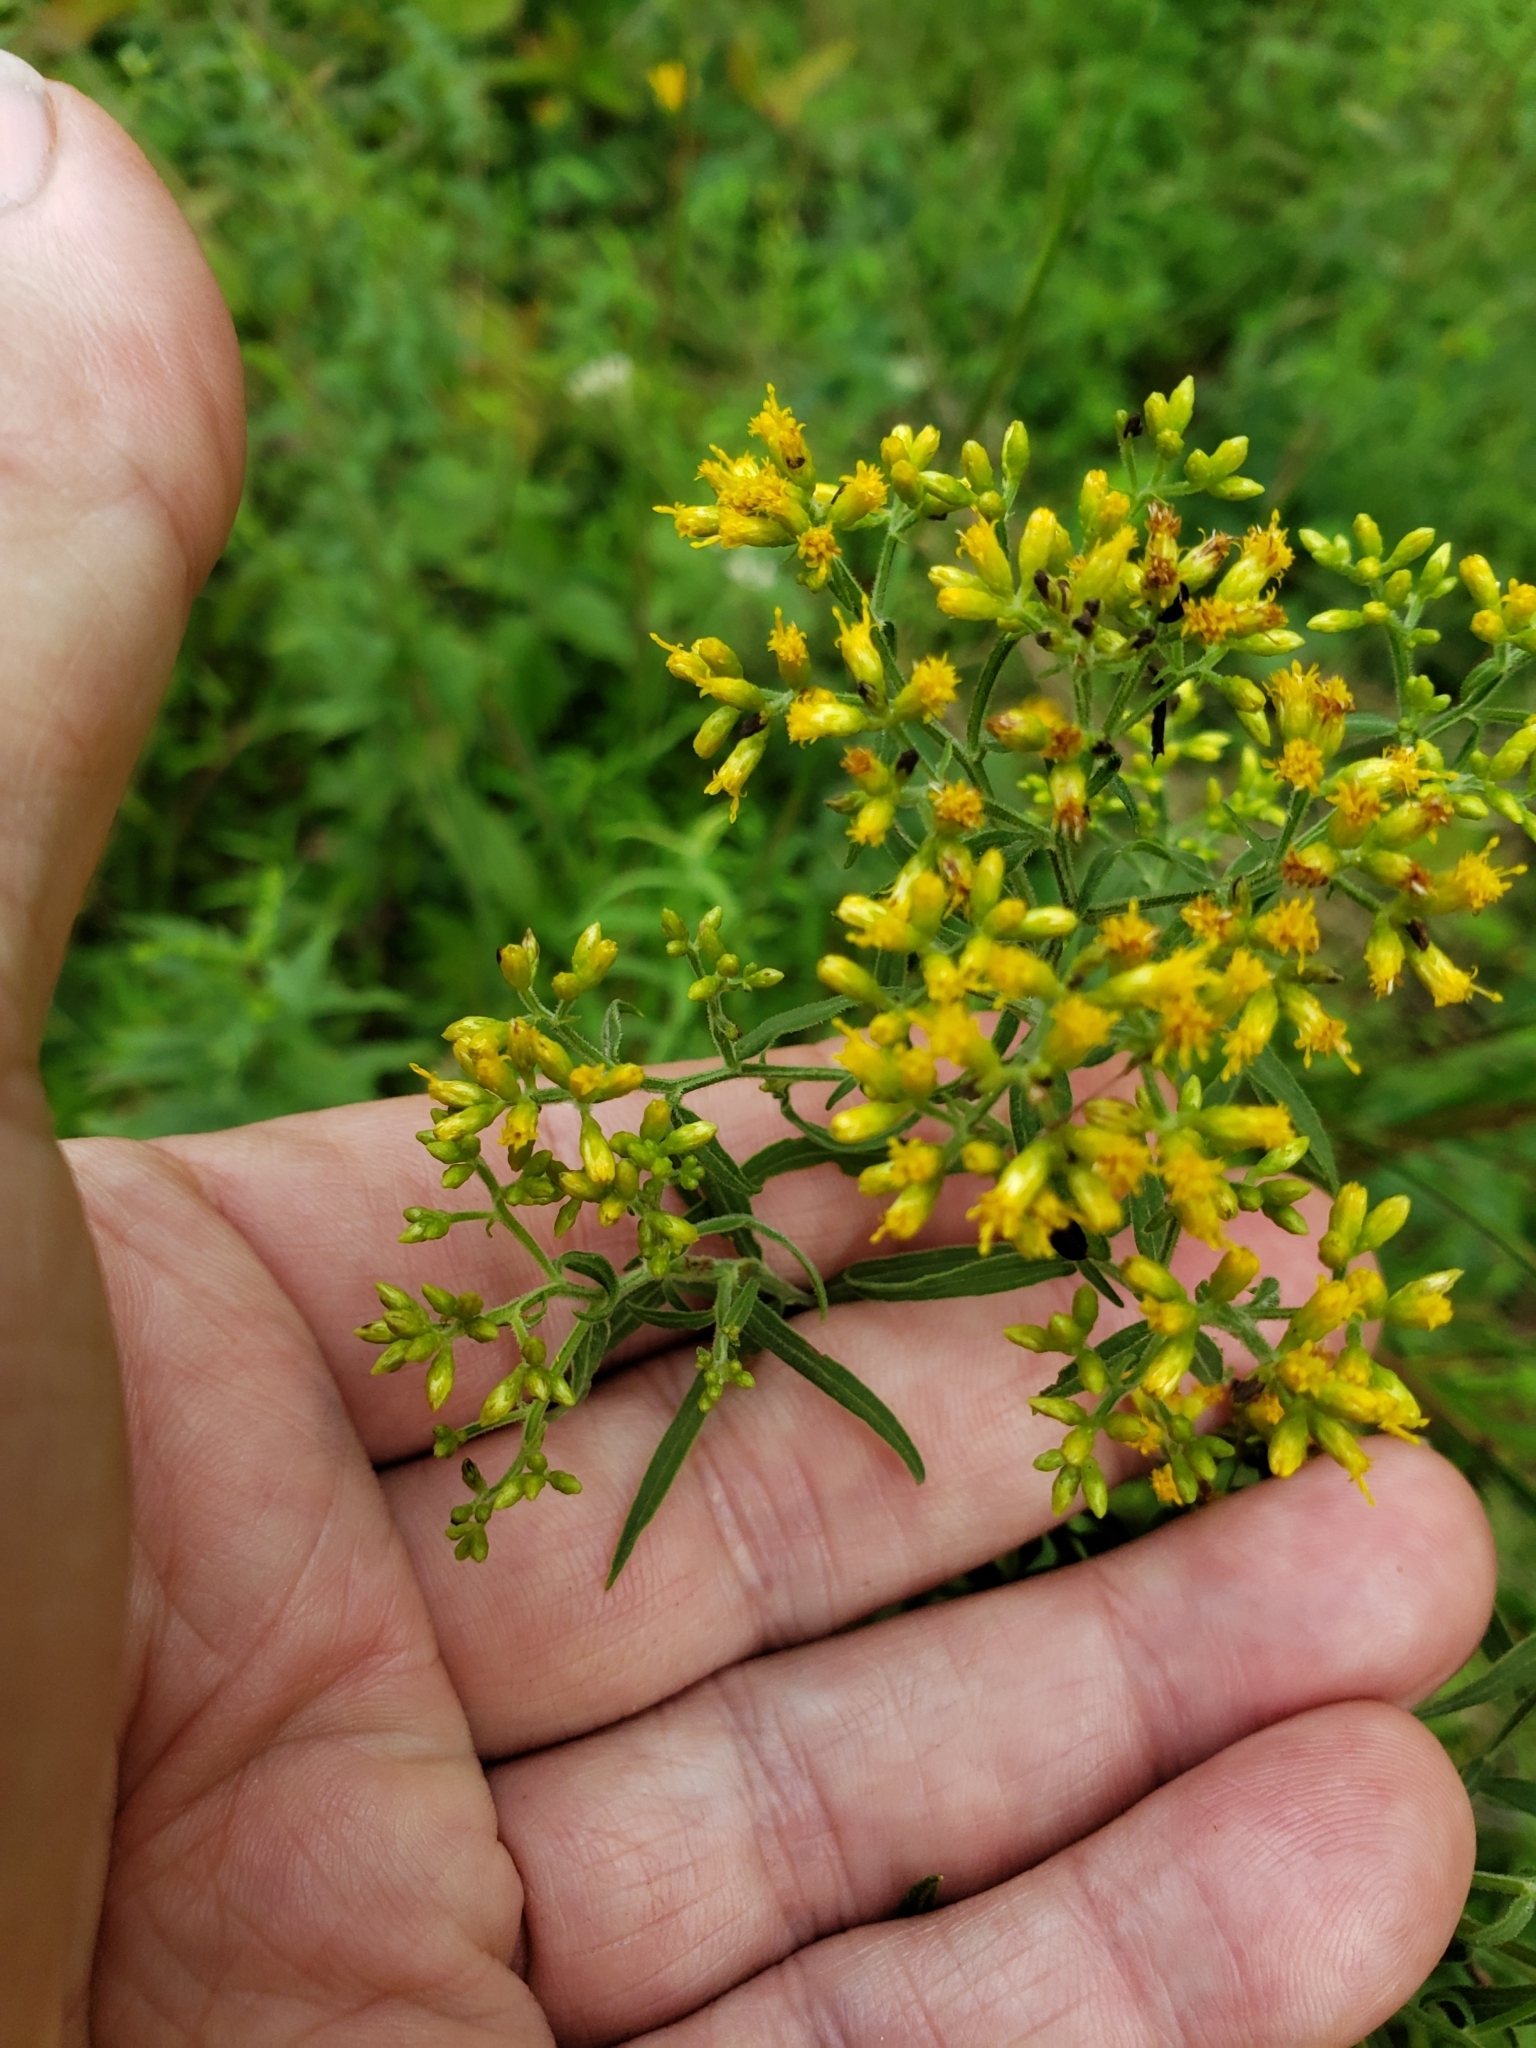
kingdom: Animalia
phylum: Arthropoda
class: Insecta
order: Diptera
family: Cecidomyiidae
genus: Asteromyia
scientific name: Asteromyia euthamiae
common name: Euthamia leaf gall midge
